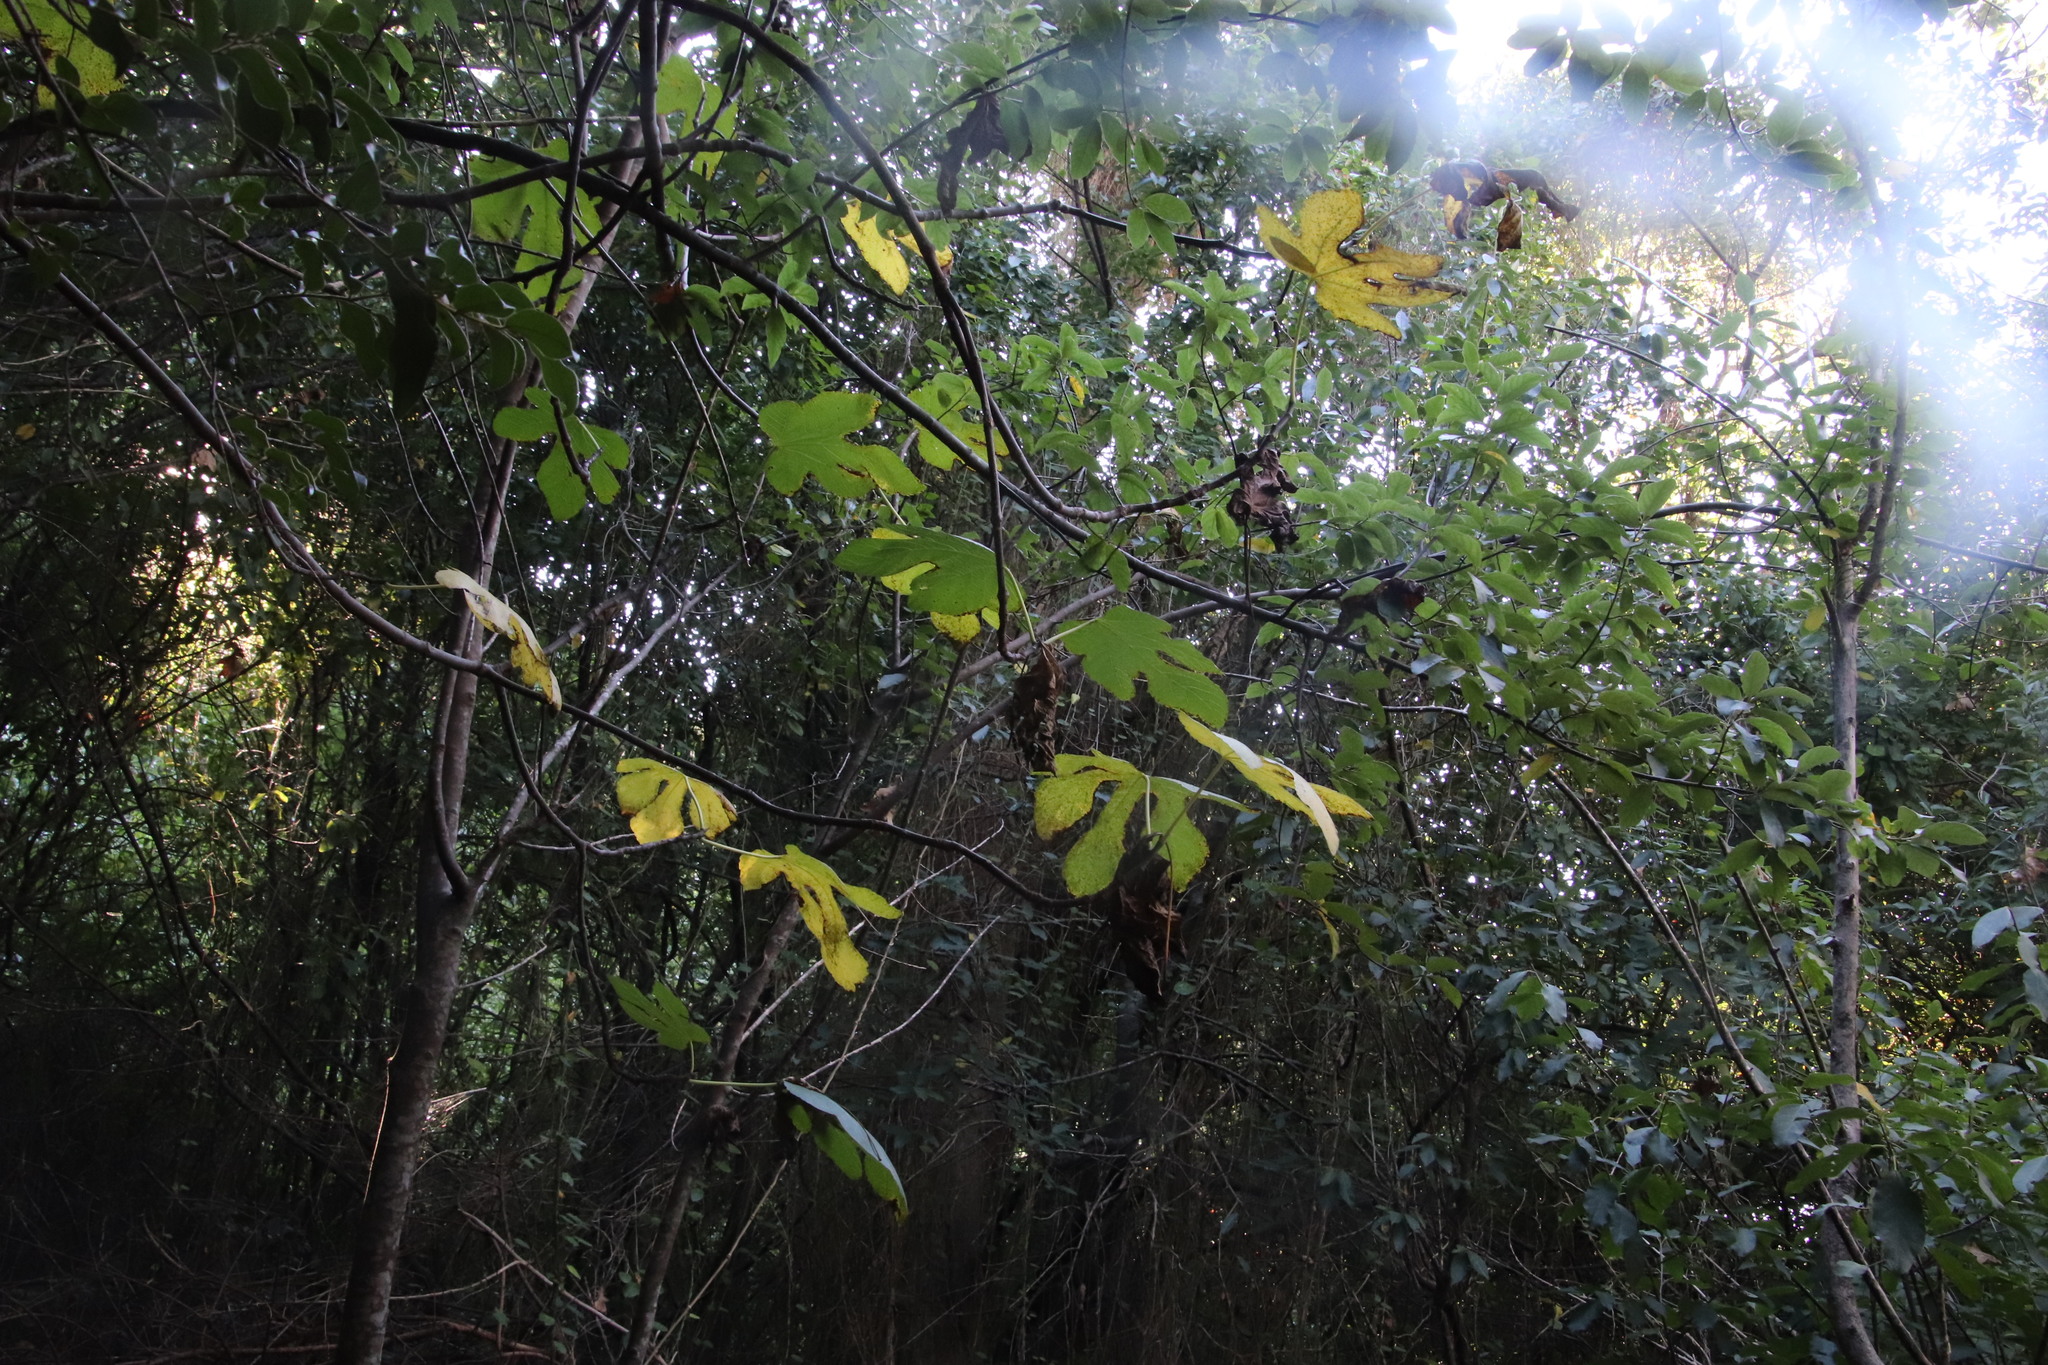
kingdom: Plantae
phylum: Tracheophyta
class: Magnoliopsida
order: Rosales
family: Moraceae
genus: Ficus
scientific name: Ficus carica
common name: Fig
